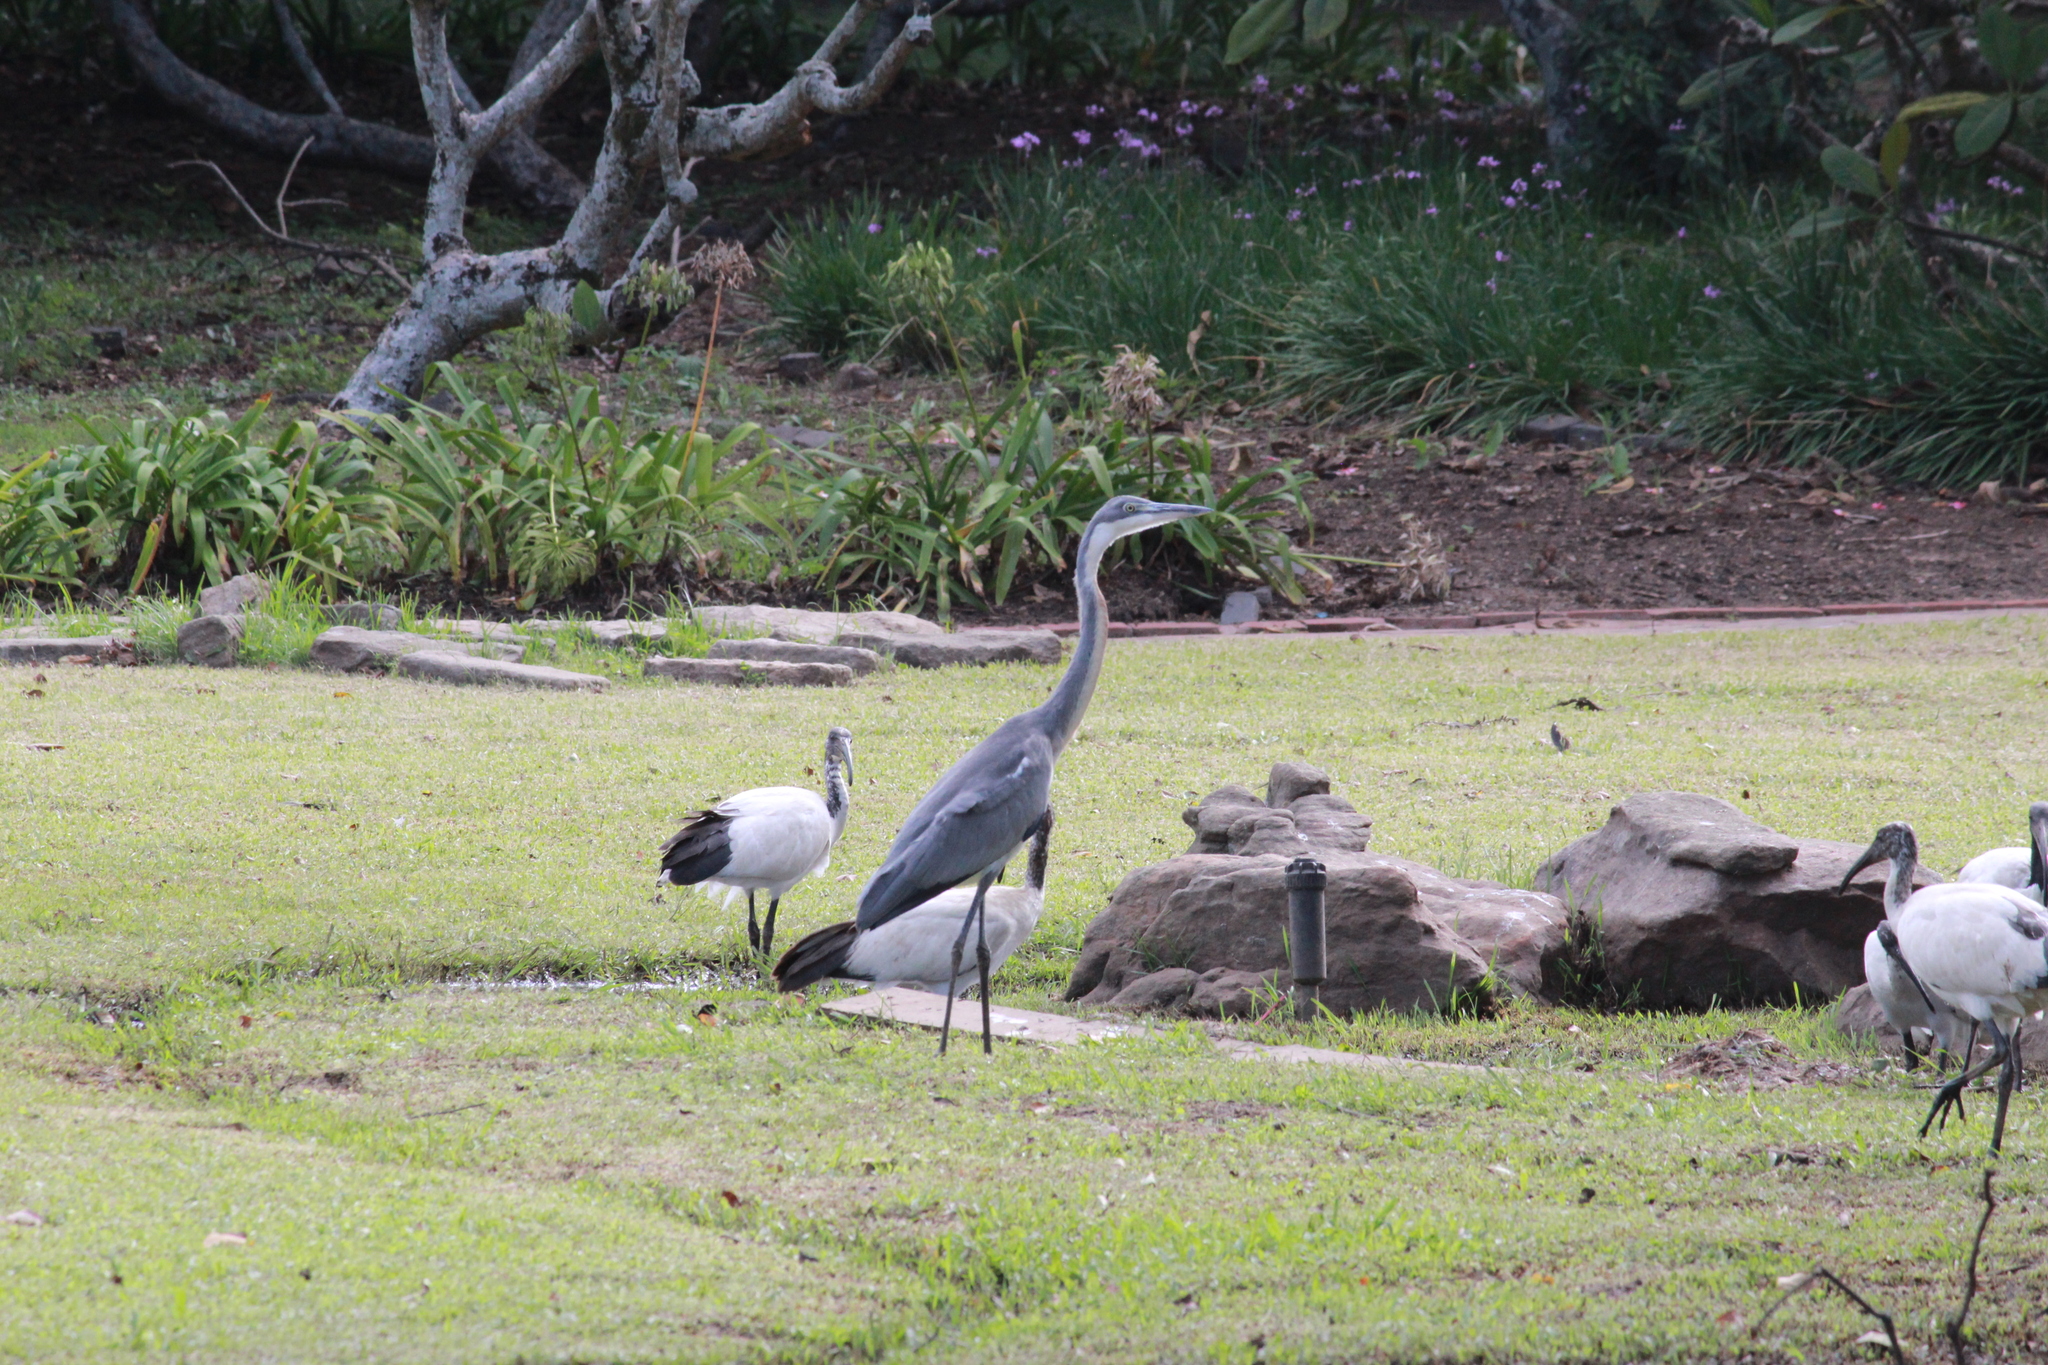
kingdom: Animalia
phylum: Chordata
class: Aves
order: Pelecaniformes
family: Ardeidae
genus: Ardea
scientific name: Ardea melanocephala
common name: Black-headed heron
